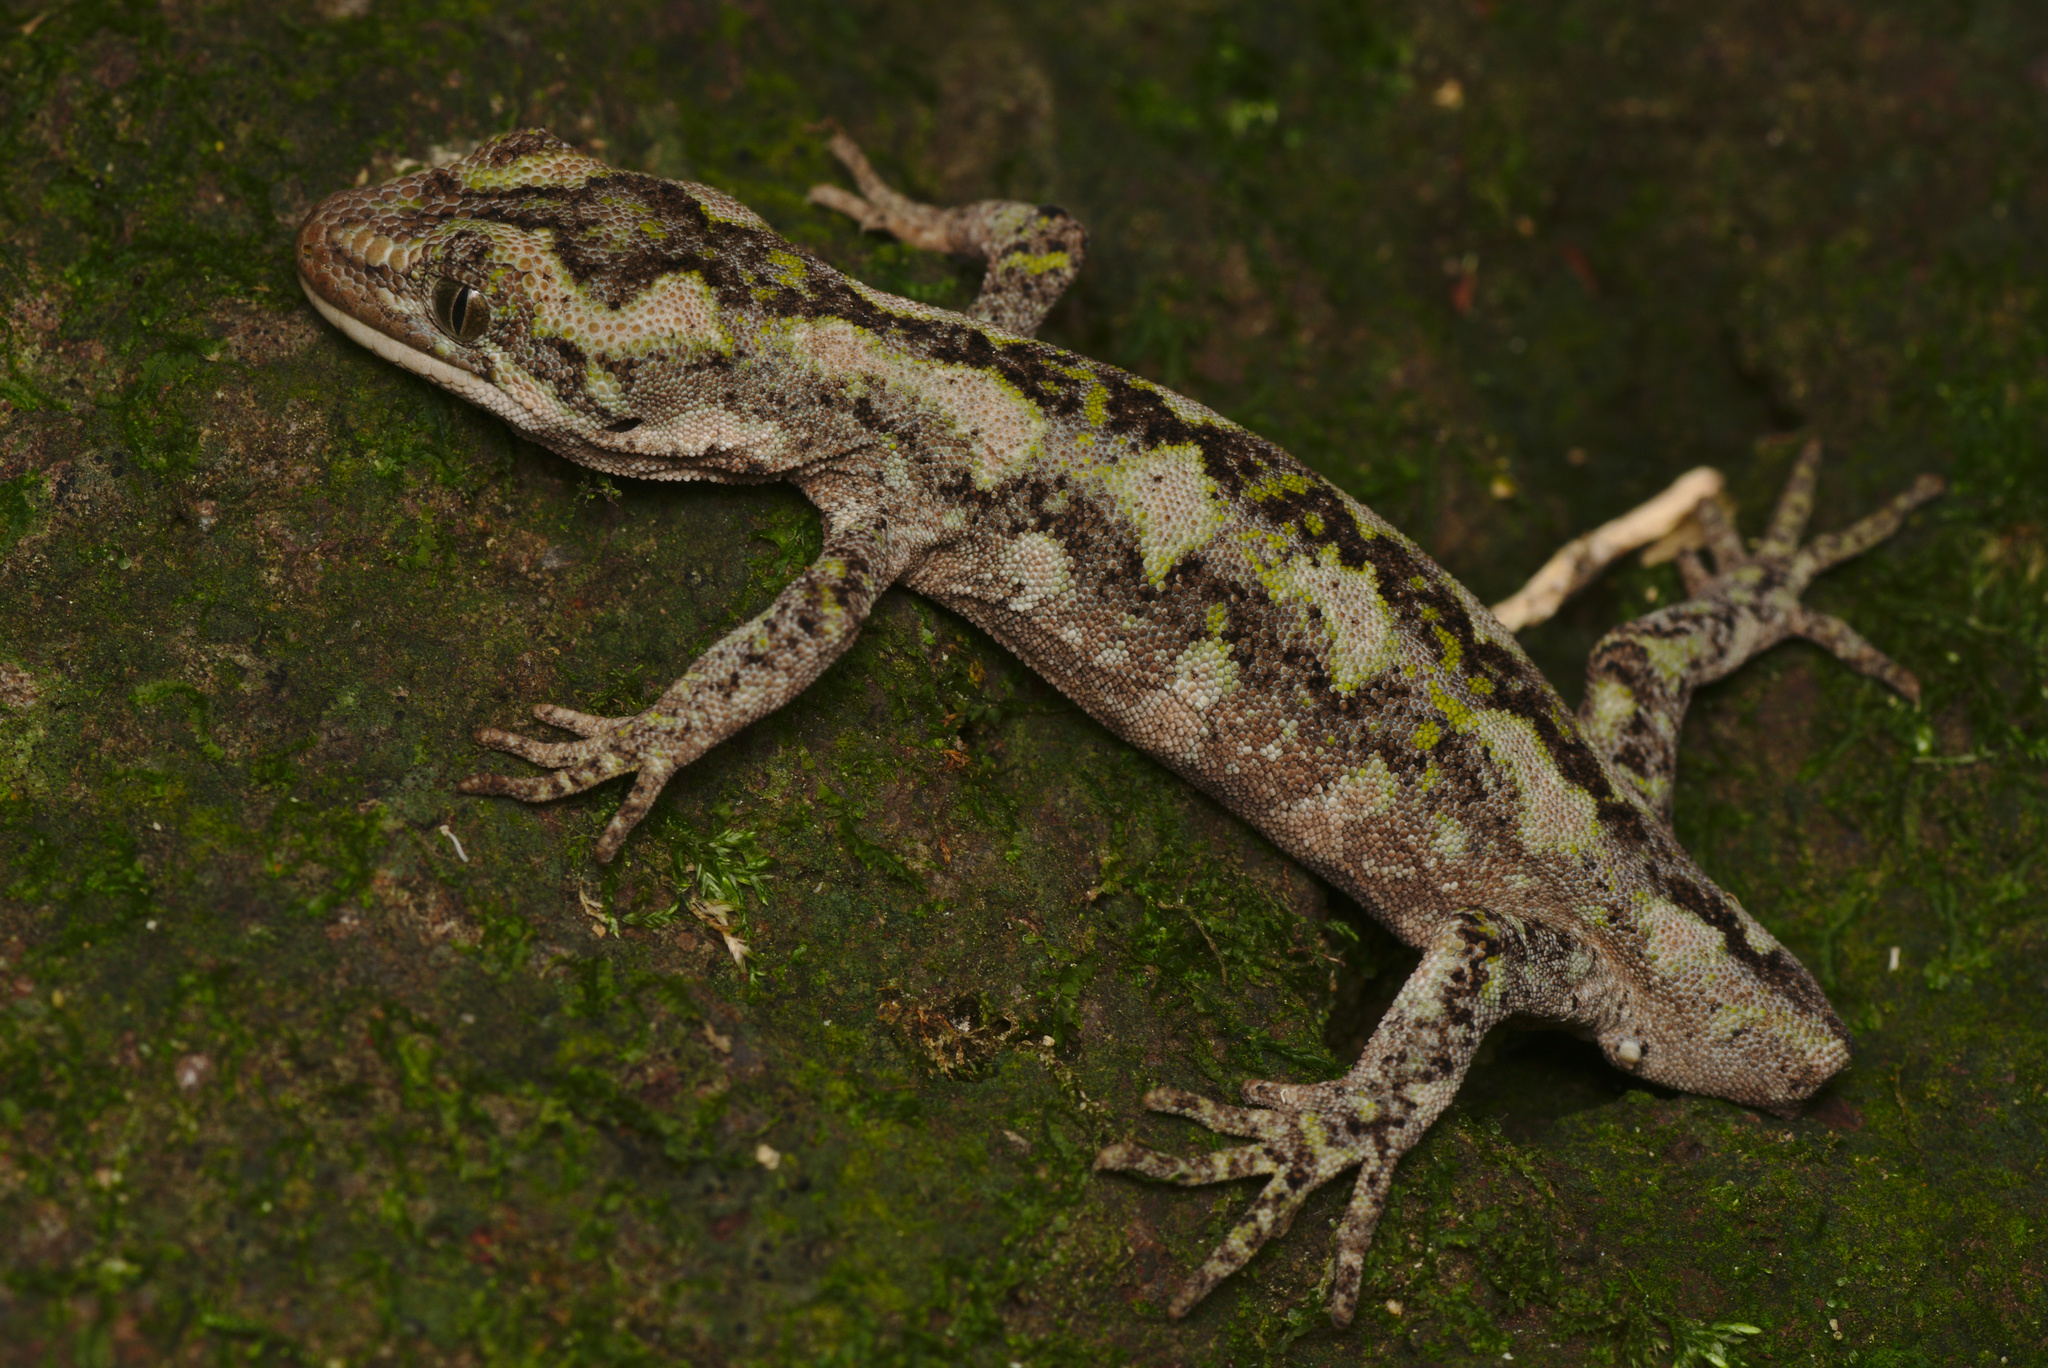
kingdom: Animalia
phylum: Chordata
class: Squamata
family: Diplodactylidae
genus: Naultinus
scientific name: Naultinus gemmeus
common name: Jewelled gecko
